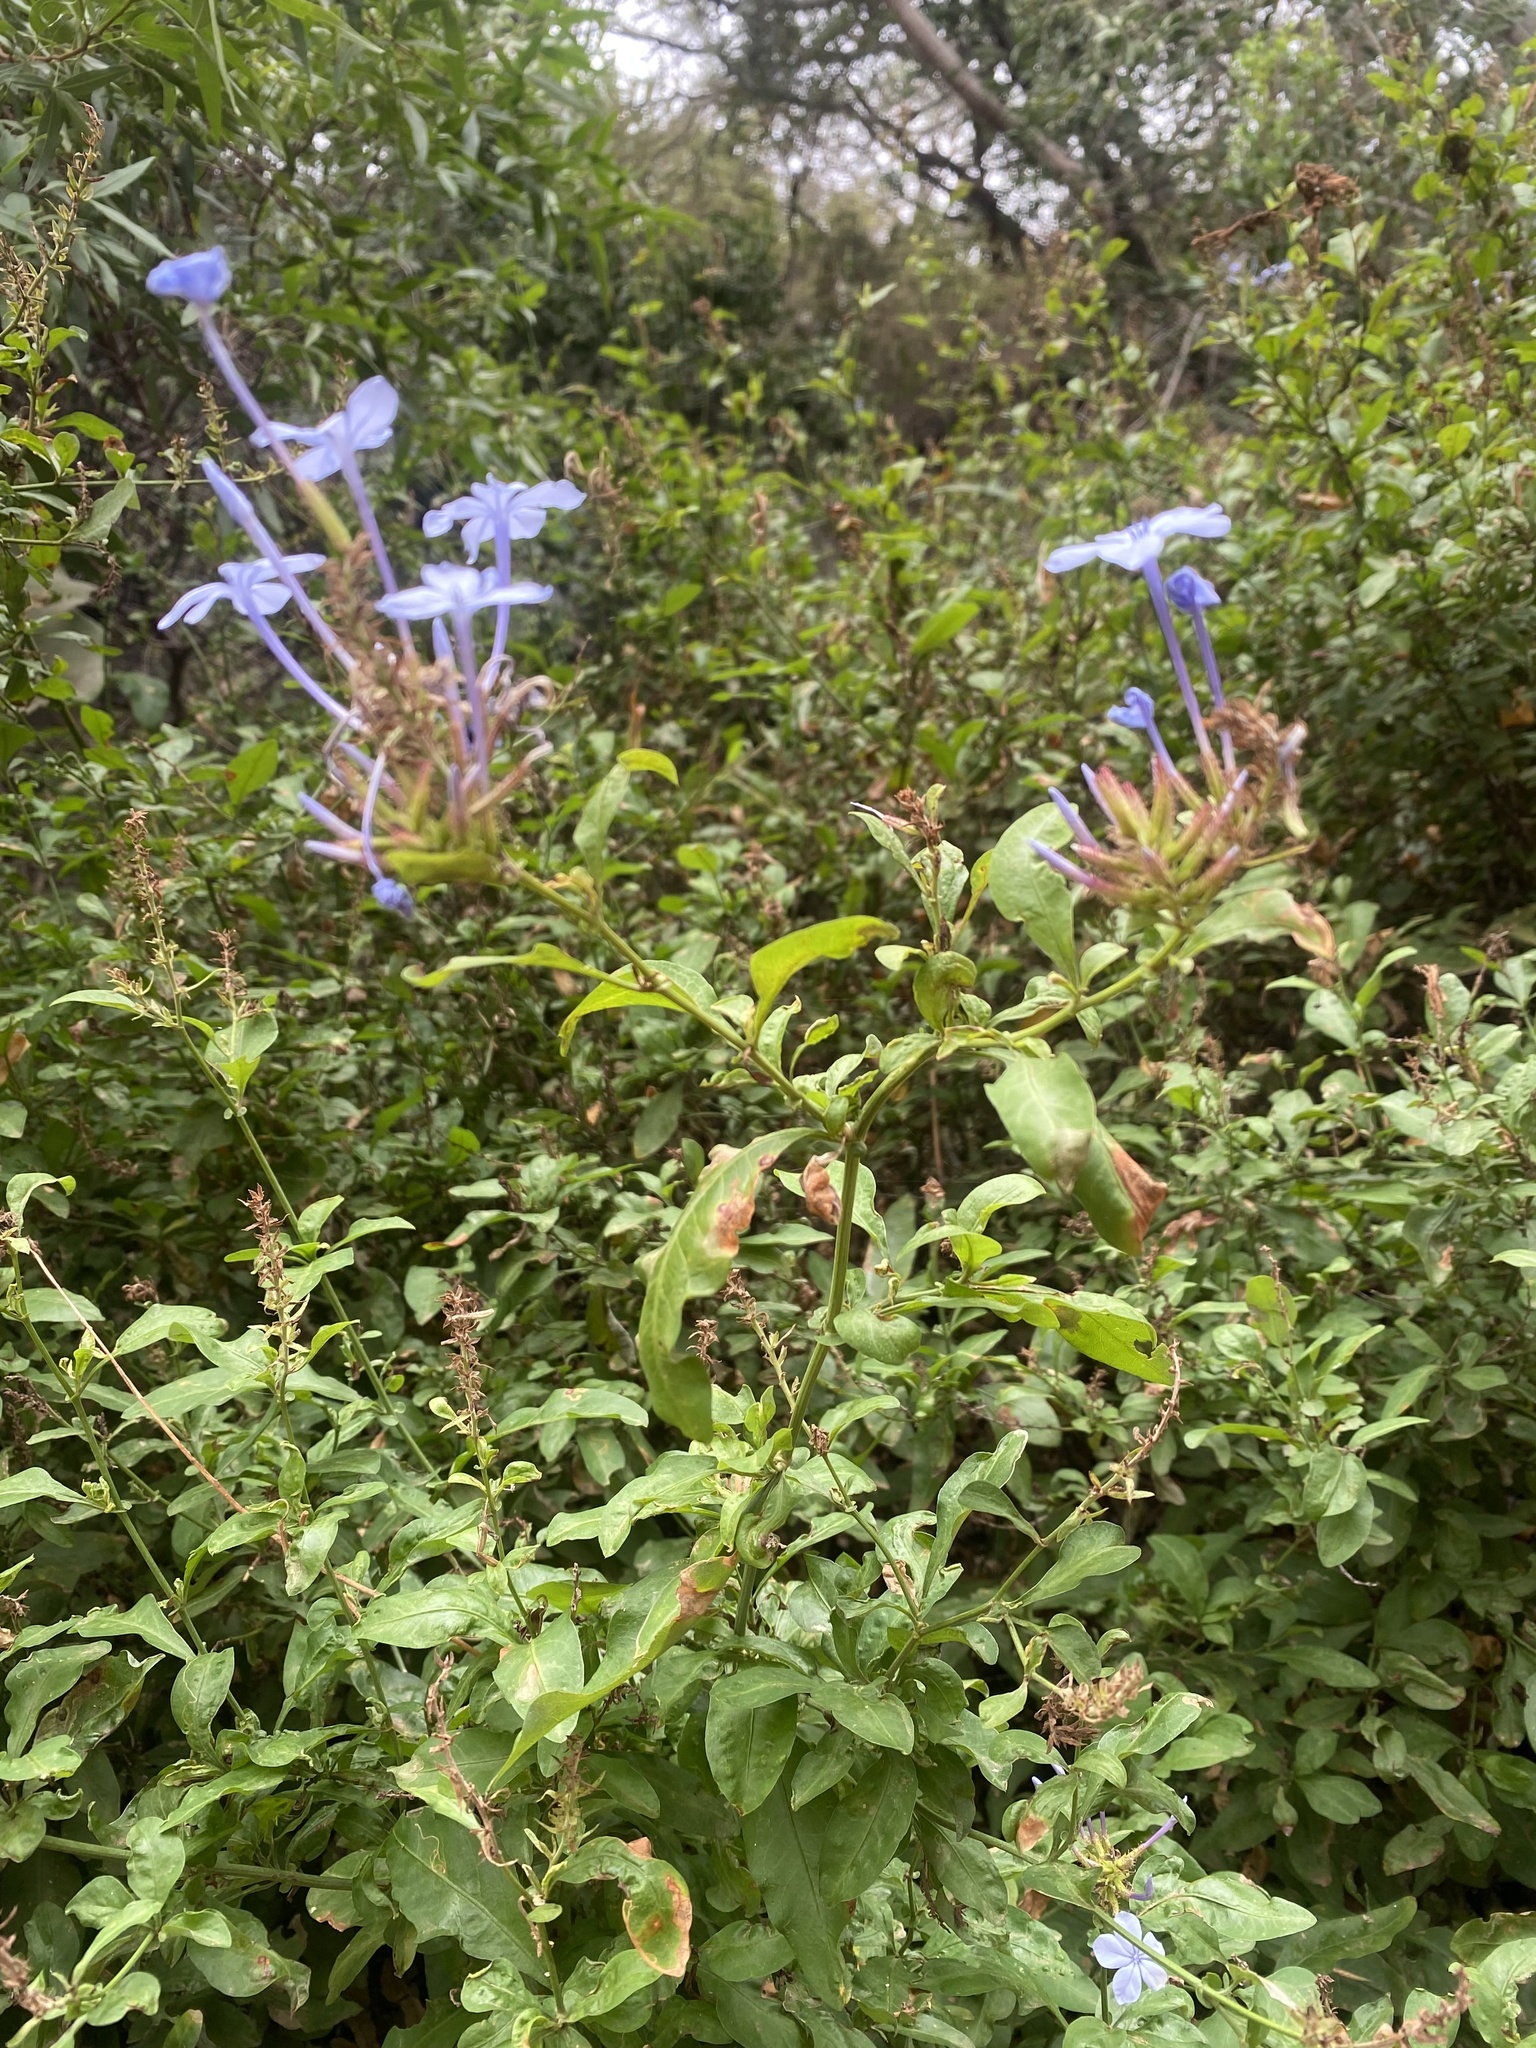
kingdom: Plantae
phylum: Tracheophyta
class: Magnoliopsida
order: Caryophyllales
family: Plumbaginaceae
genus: Plumbago
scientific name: Plumbago auriculata
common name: Cape leadwort
